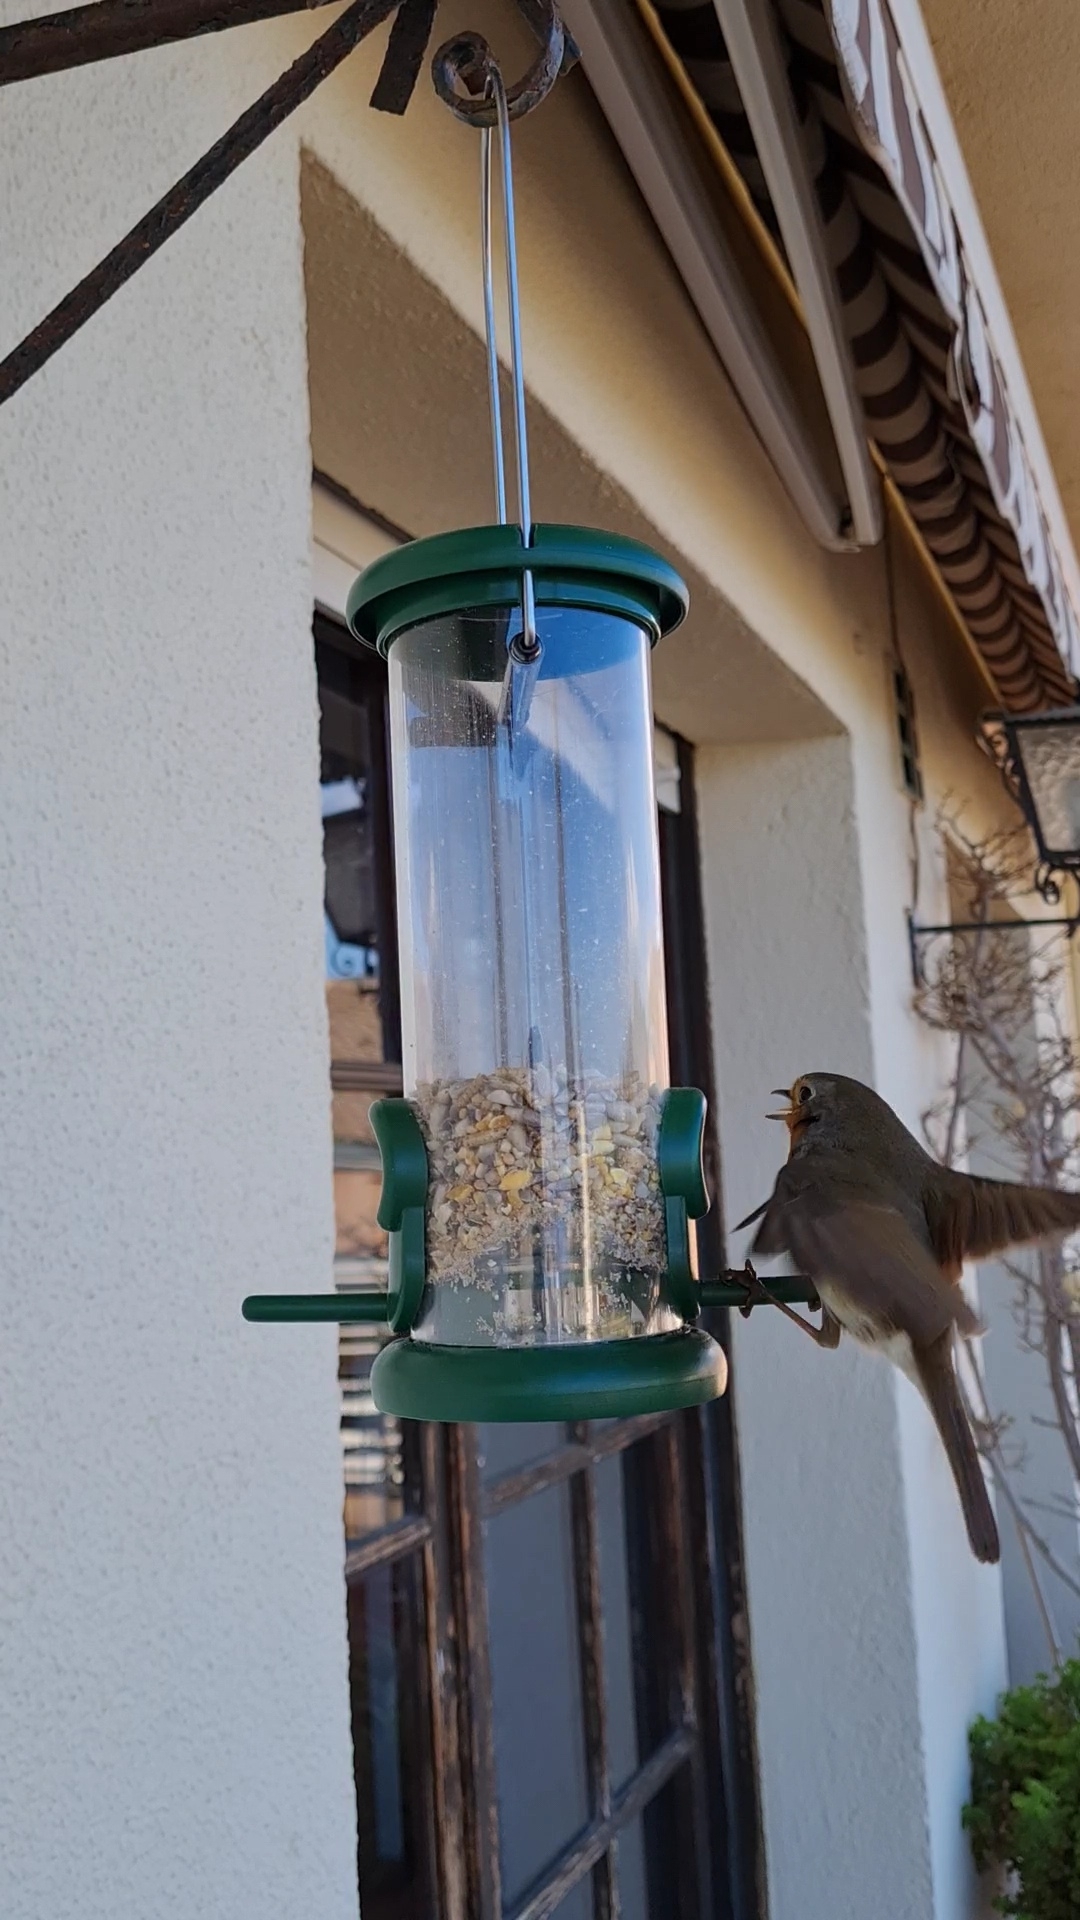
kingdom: Animalia
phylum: Chordata
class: Aves
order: Passeriformes
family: Muscicapidae
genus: Erithacus
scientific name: Erithacus rubecula
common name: European robin
